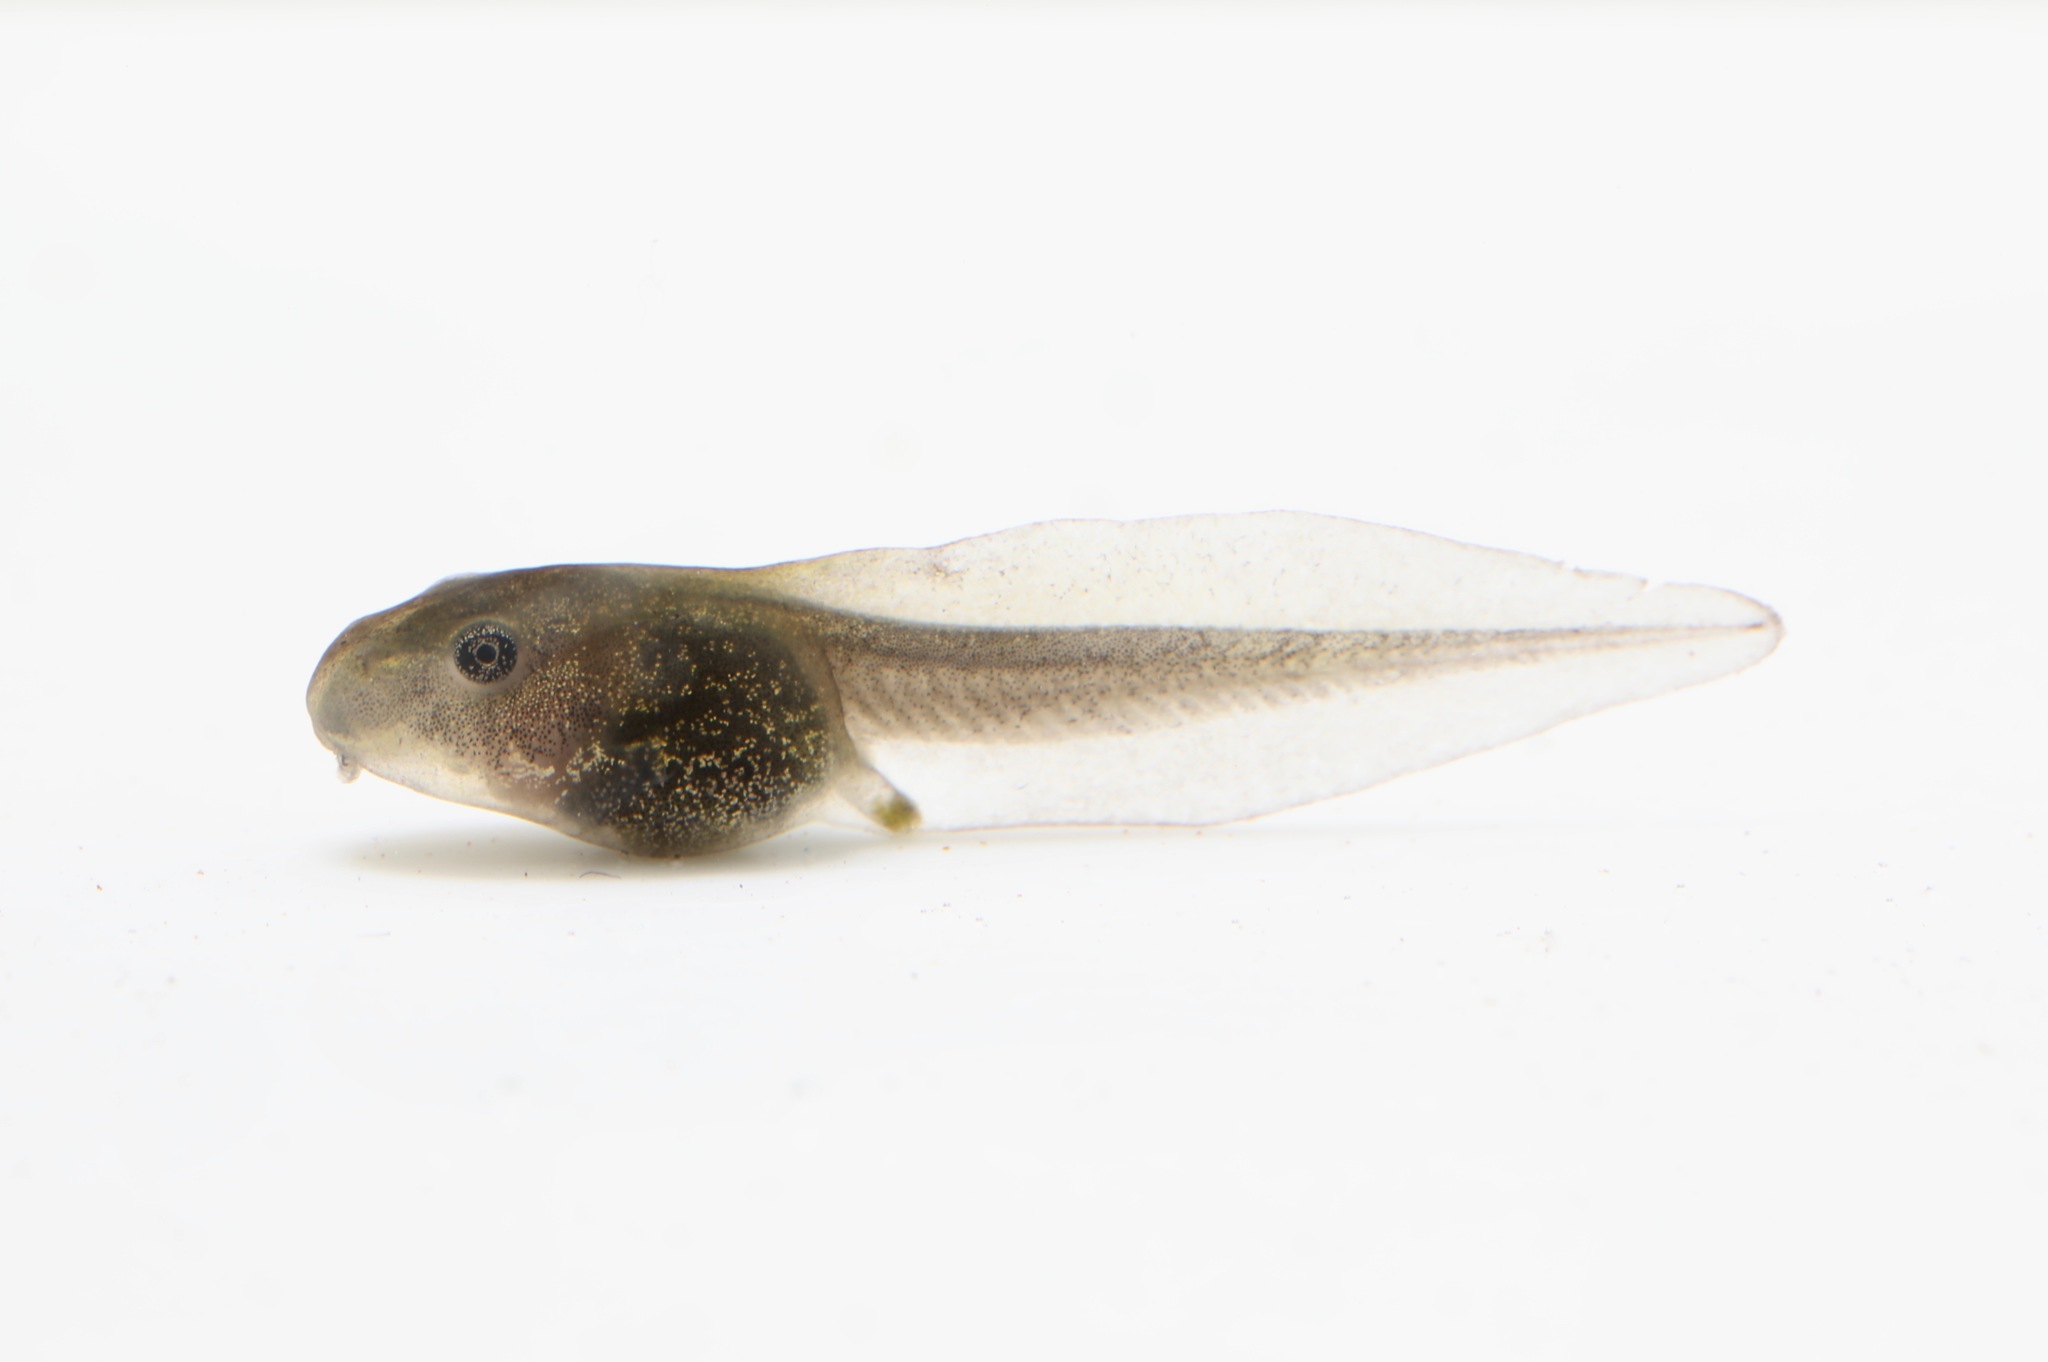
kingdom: Animalia
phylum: Chordata
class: Amphibia
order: Anura
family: Ranidae
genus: Lithobates
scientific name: Lithobates sylvaticus
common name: Wood frog
